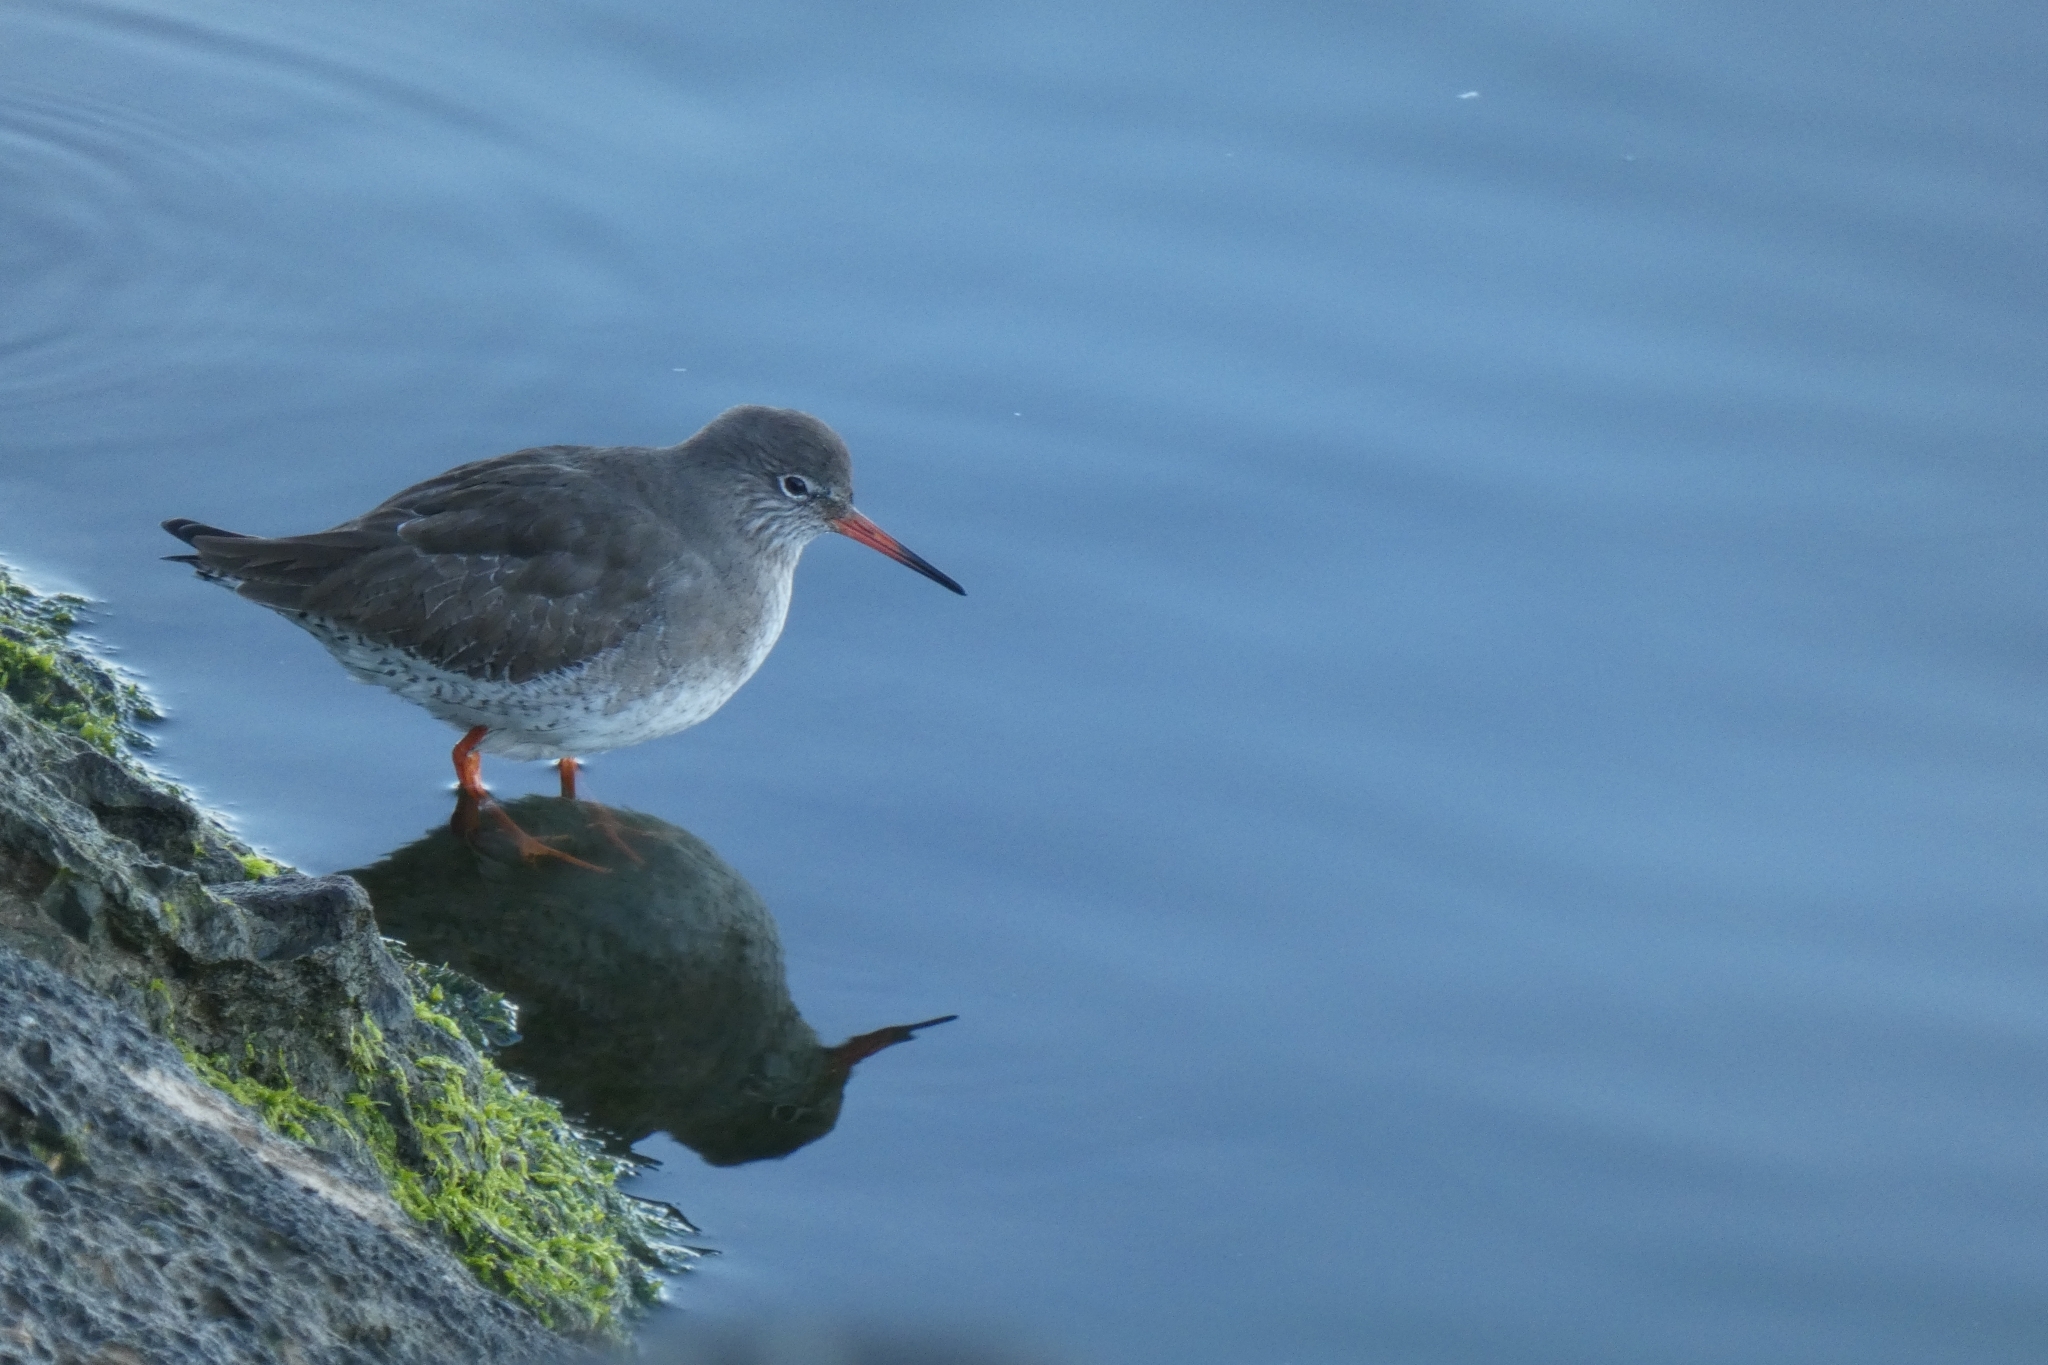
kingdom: Animalia
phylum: Chordata
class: Aves
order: Charadriiformes
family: Scolopacidae
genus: Tringa
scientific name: Tringa totanus
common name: Common redshank
